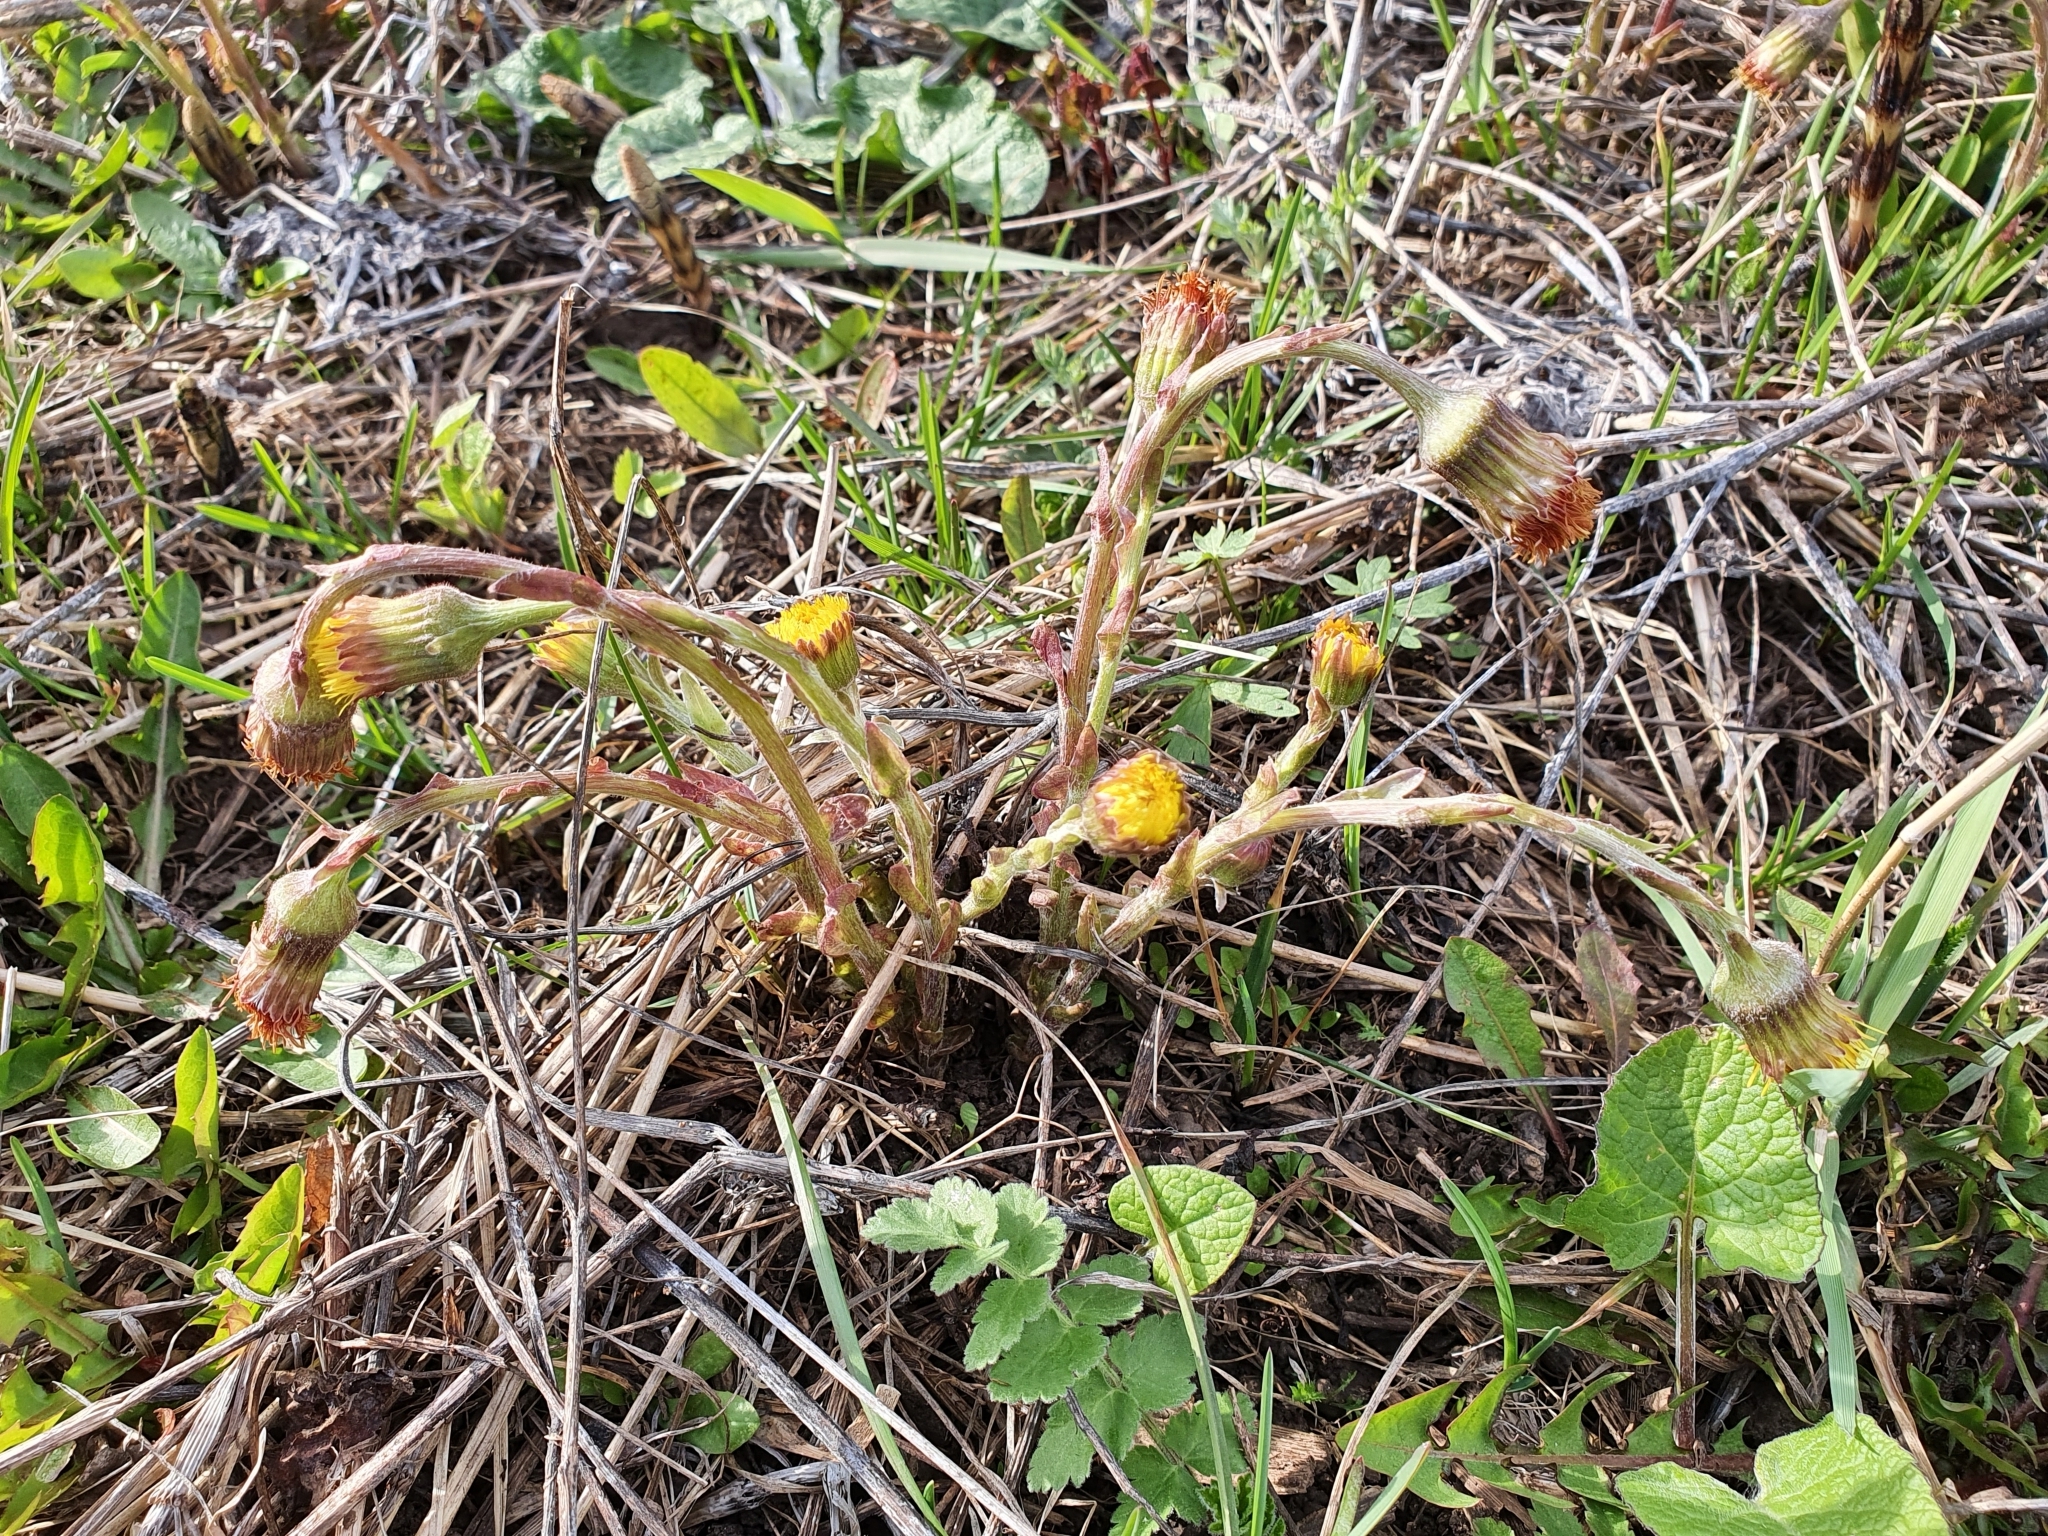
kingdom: Plantae
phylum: Tracheophyta
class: Magnoliopsida
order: Asterales
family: Asteraceae
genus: Tussilago
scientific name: Tussilago farfara
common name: Coltsfoot
